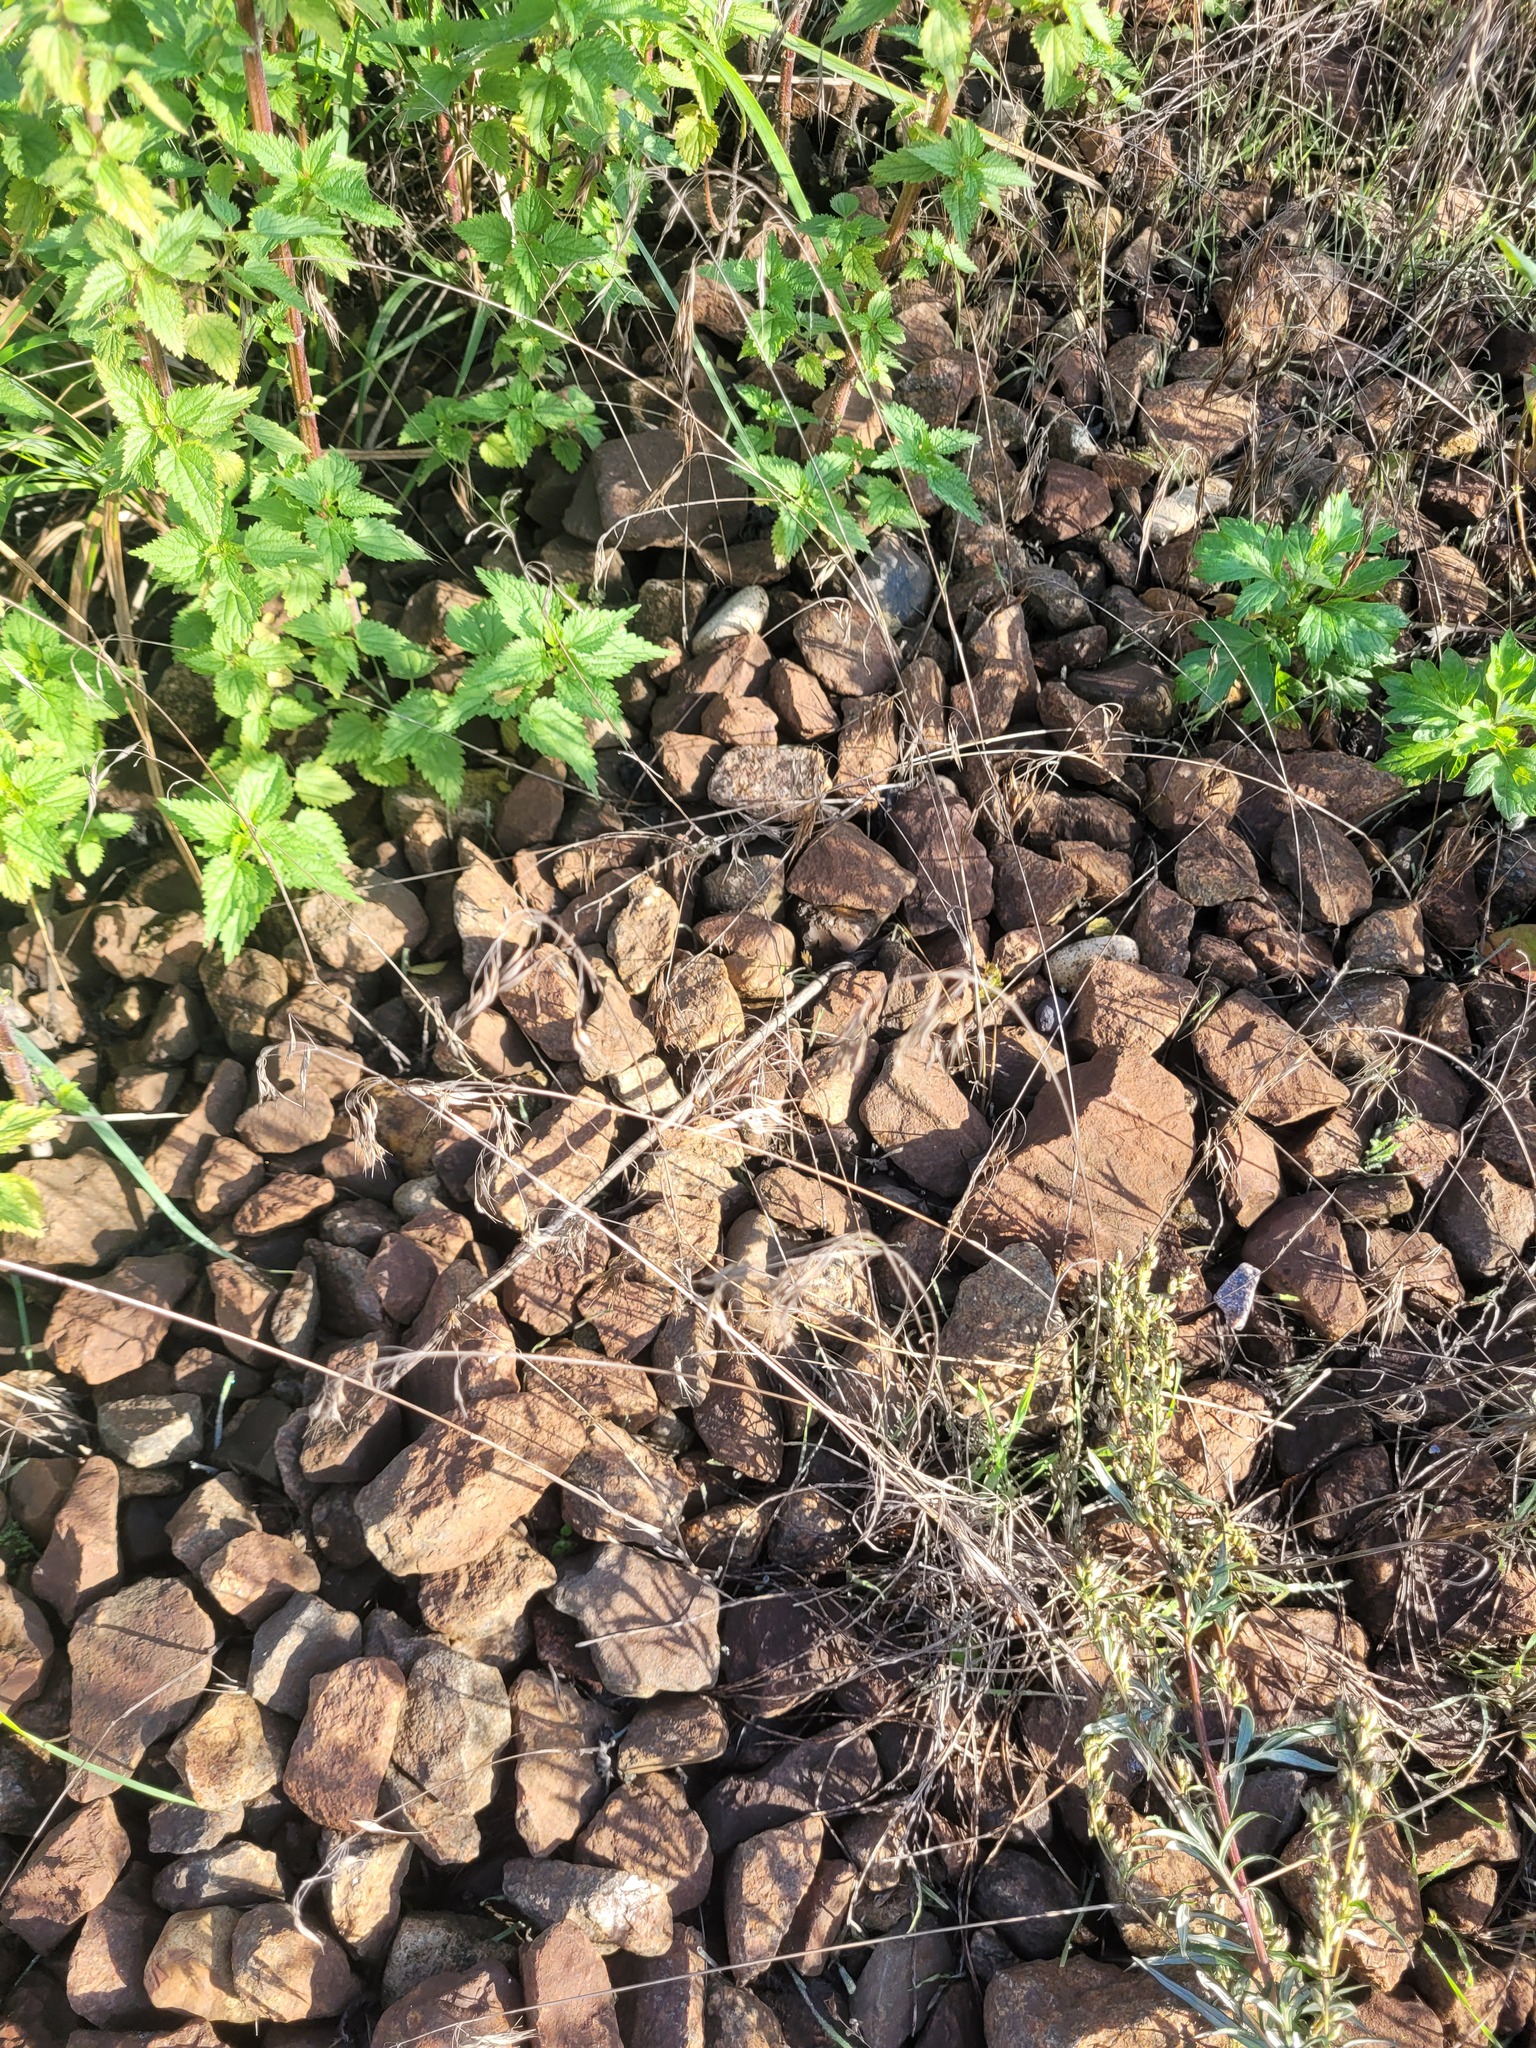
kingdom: Plantae
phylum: Tracheophyta
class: Liliopsida
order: Poales
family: Poaceae
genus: Bromus
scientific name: Bromus tectorum
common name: Cheatgrass
